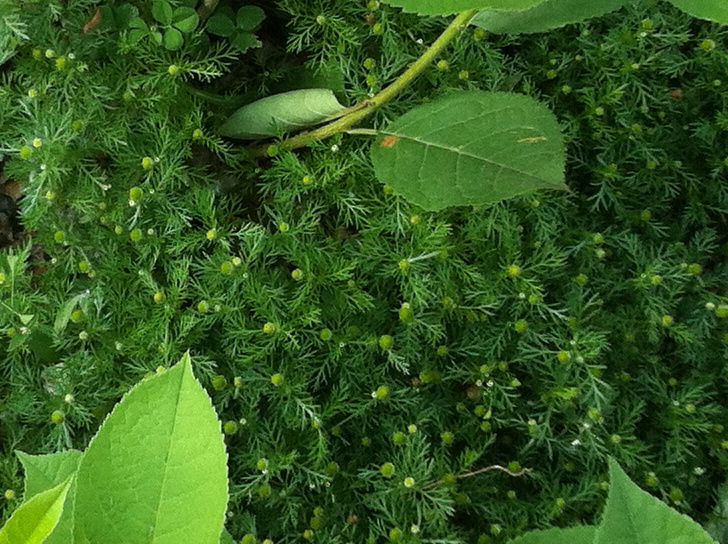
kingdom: Plantae
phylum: Tracheophyta
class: Magnoliopsida
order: Asterales
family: Asteraceae
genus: Matricaria
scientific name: Matricaria discoidea
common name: Disc mayweed
